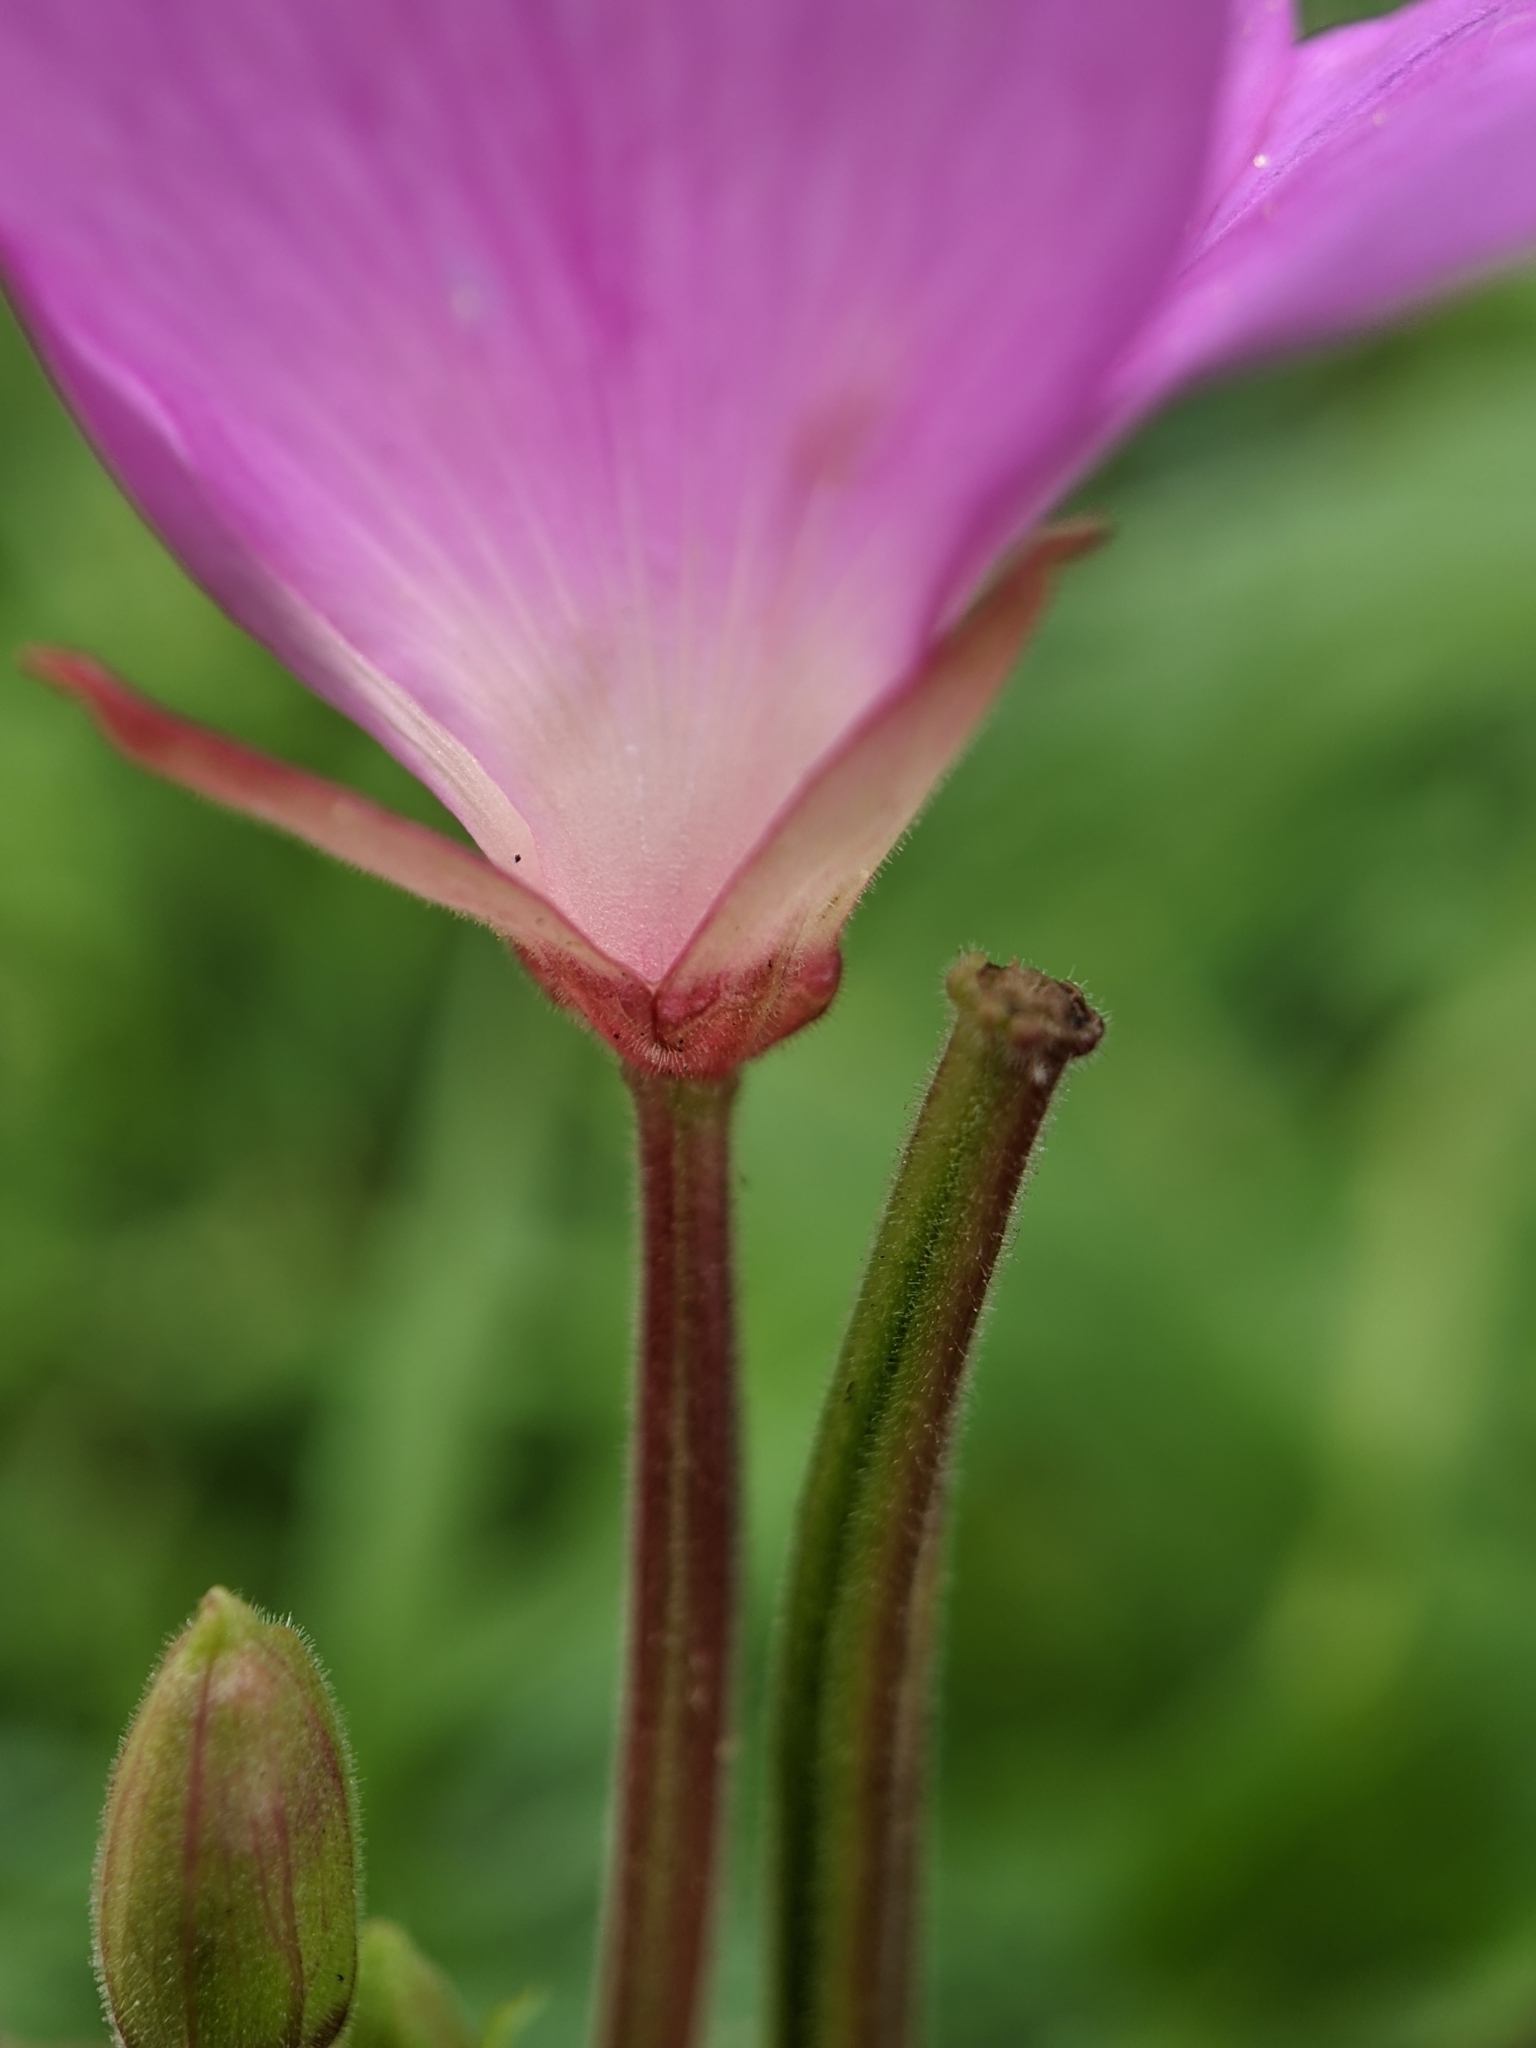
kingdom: Plantae
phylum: Tracheophyta
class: Magnoliopsida
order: Myrtales
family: Onagraceae
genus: Epilobium
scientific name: Epilobium hirsutum
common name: Great willowherb
